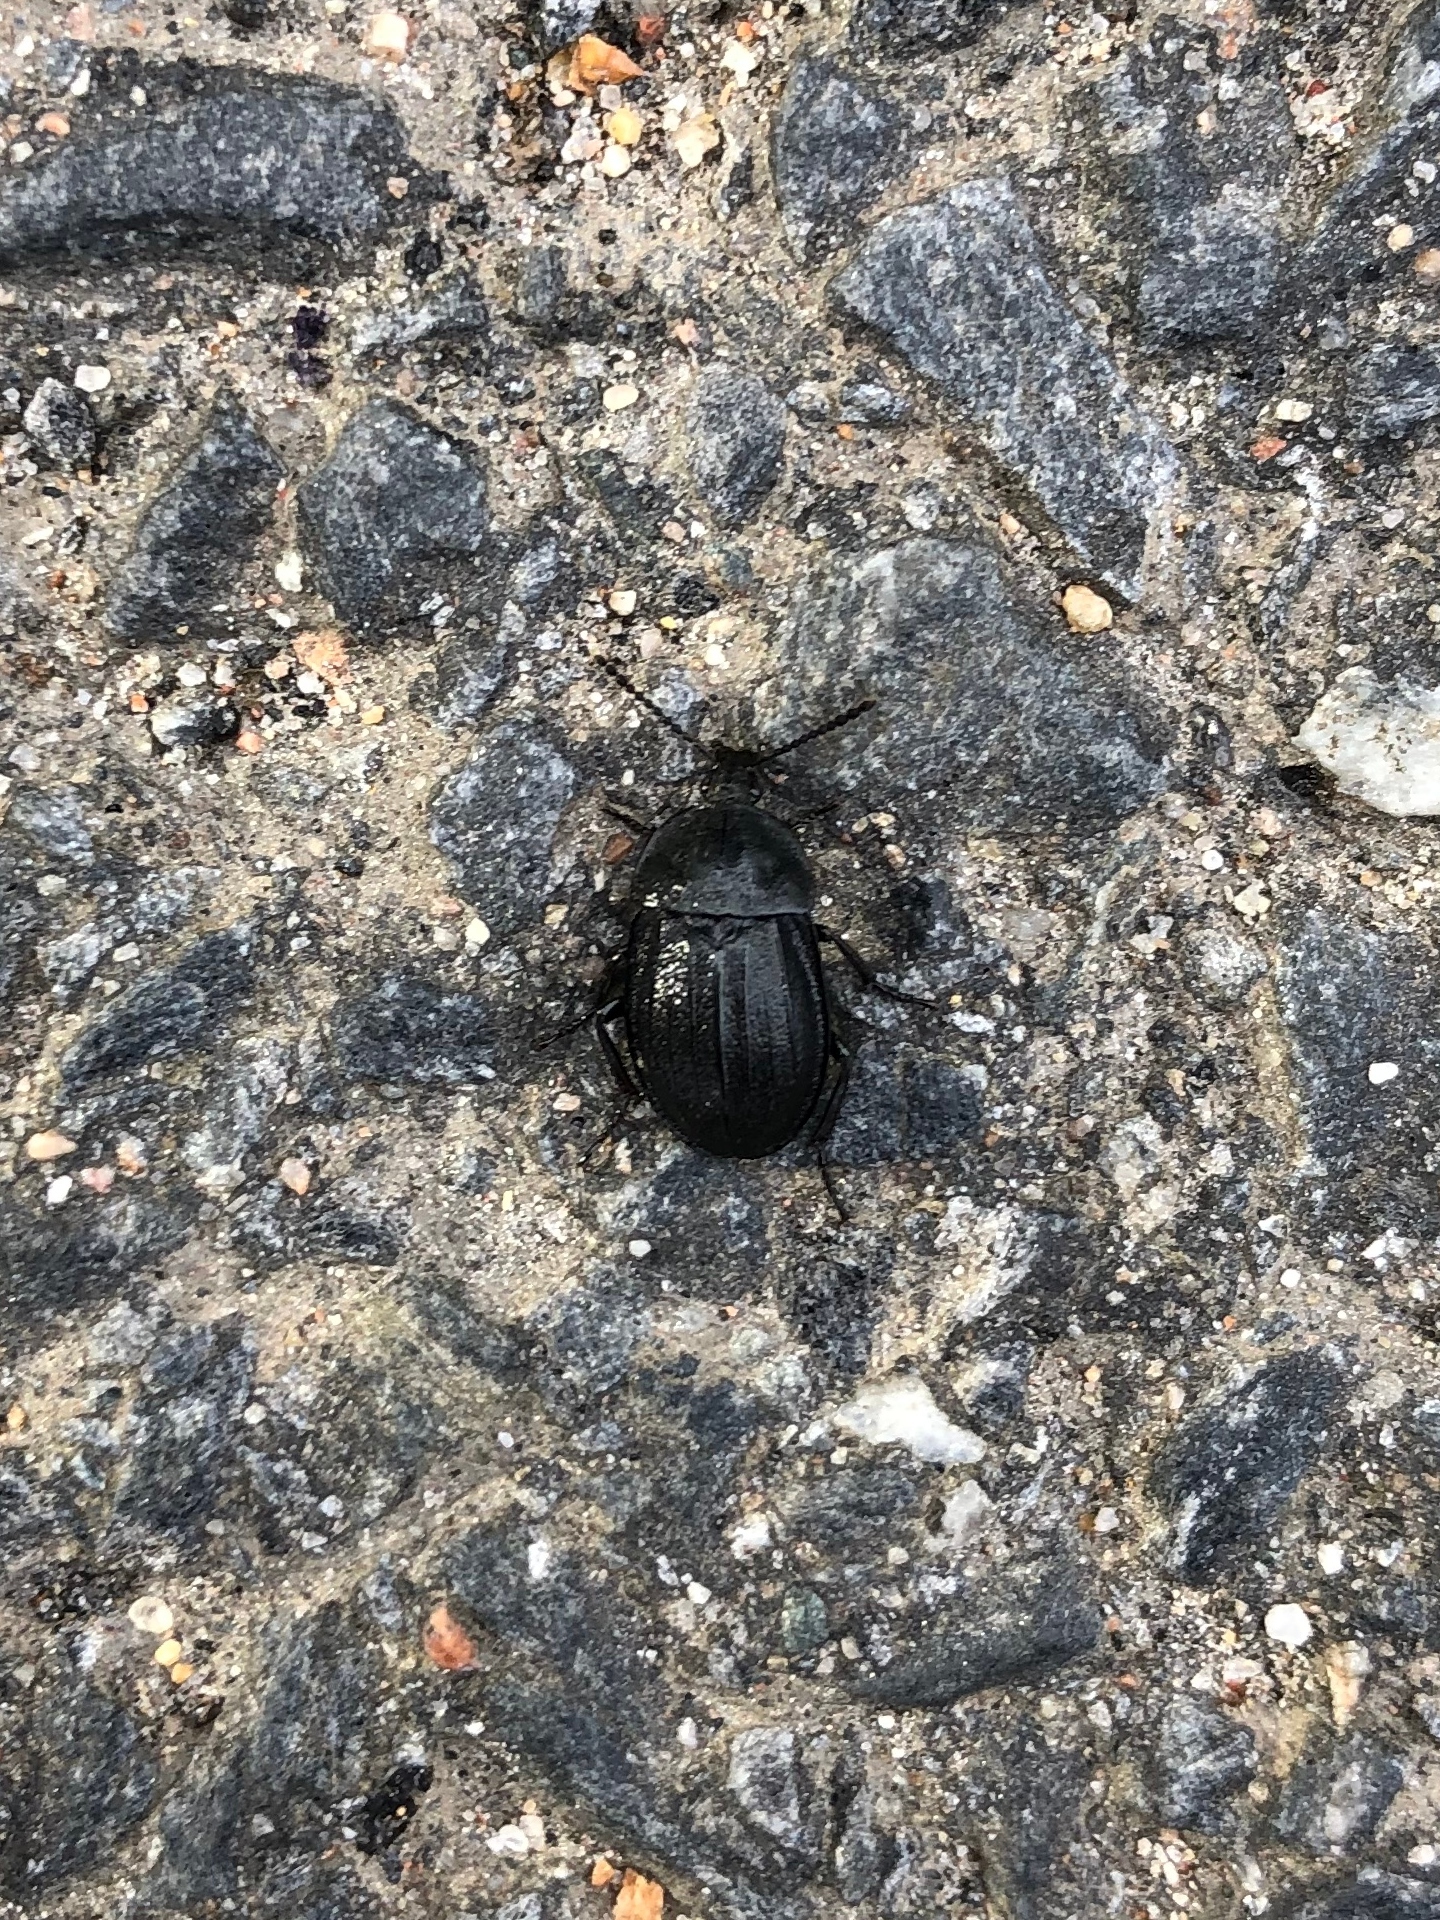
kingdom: Animalia
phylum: Arthropoda
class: Insecta
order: Coleoptera
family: Staphylinidae
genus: Silpha
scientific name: Silpha atrata
